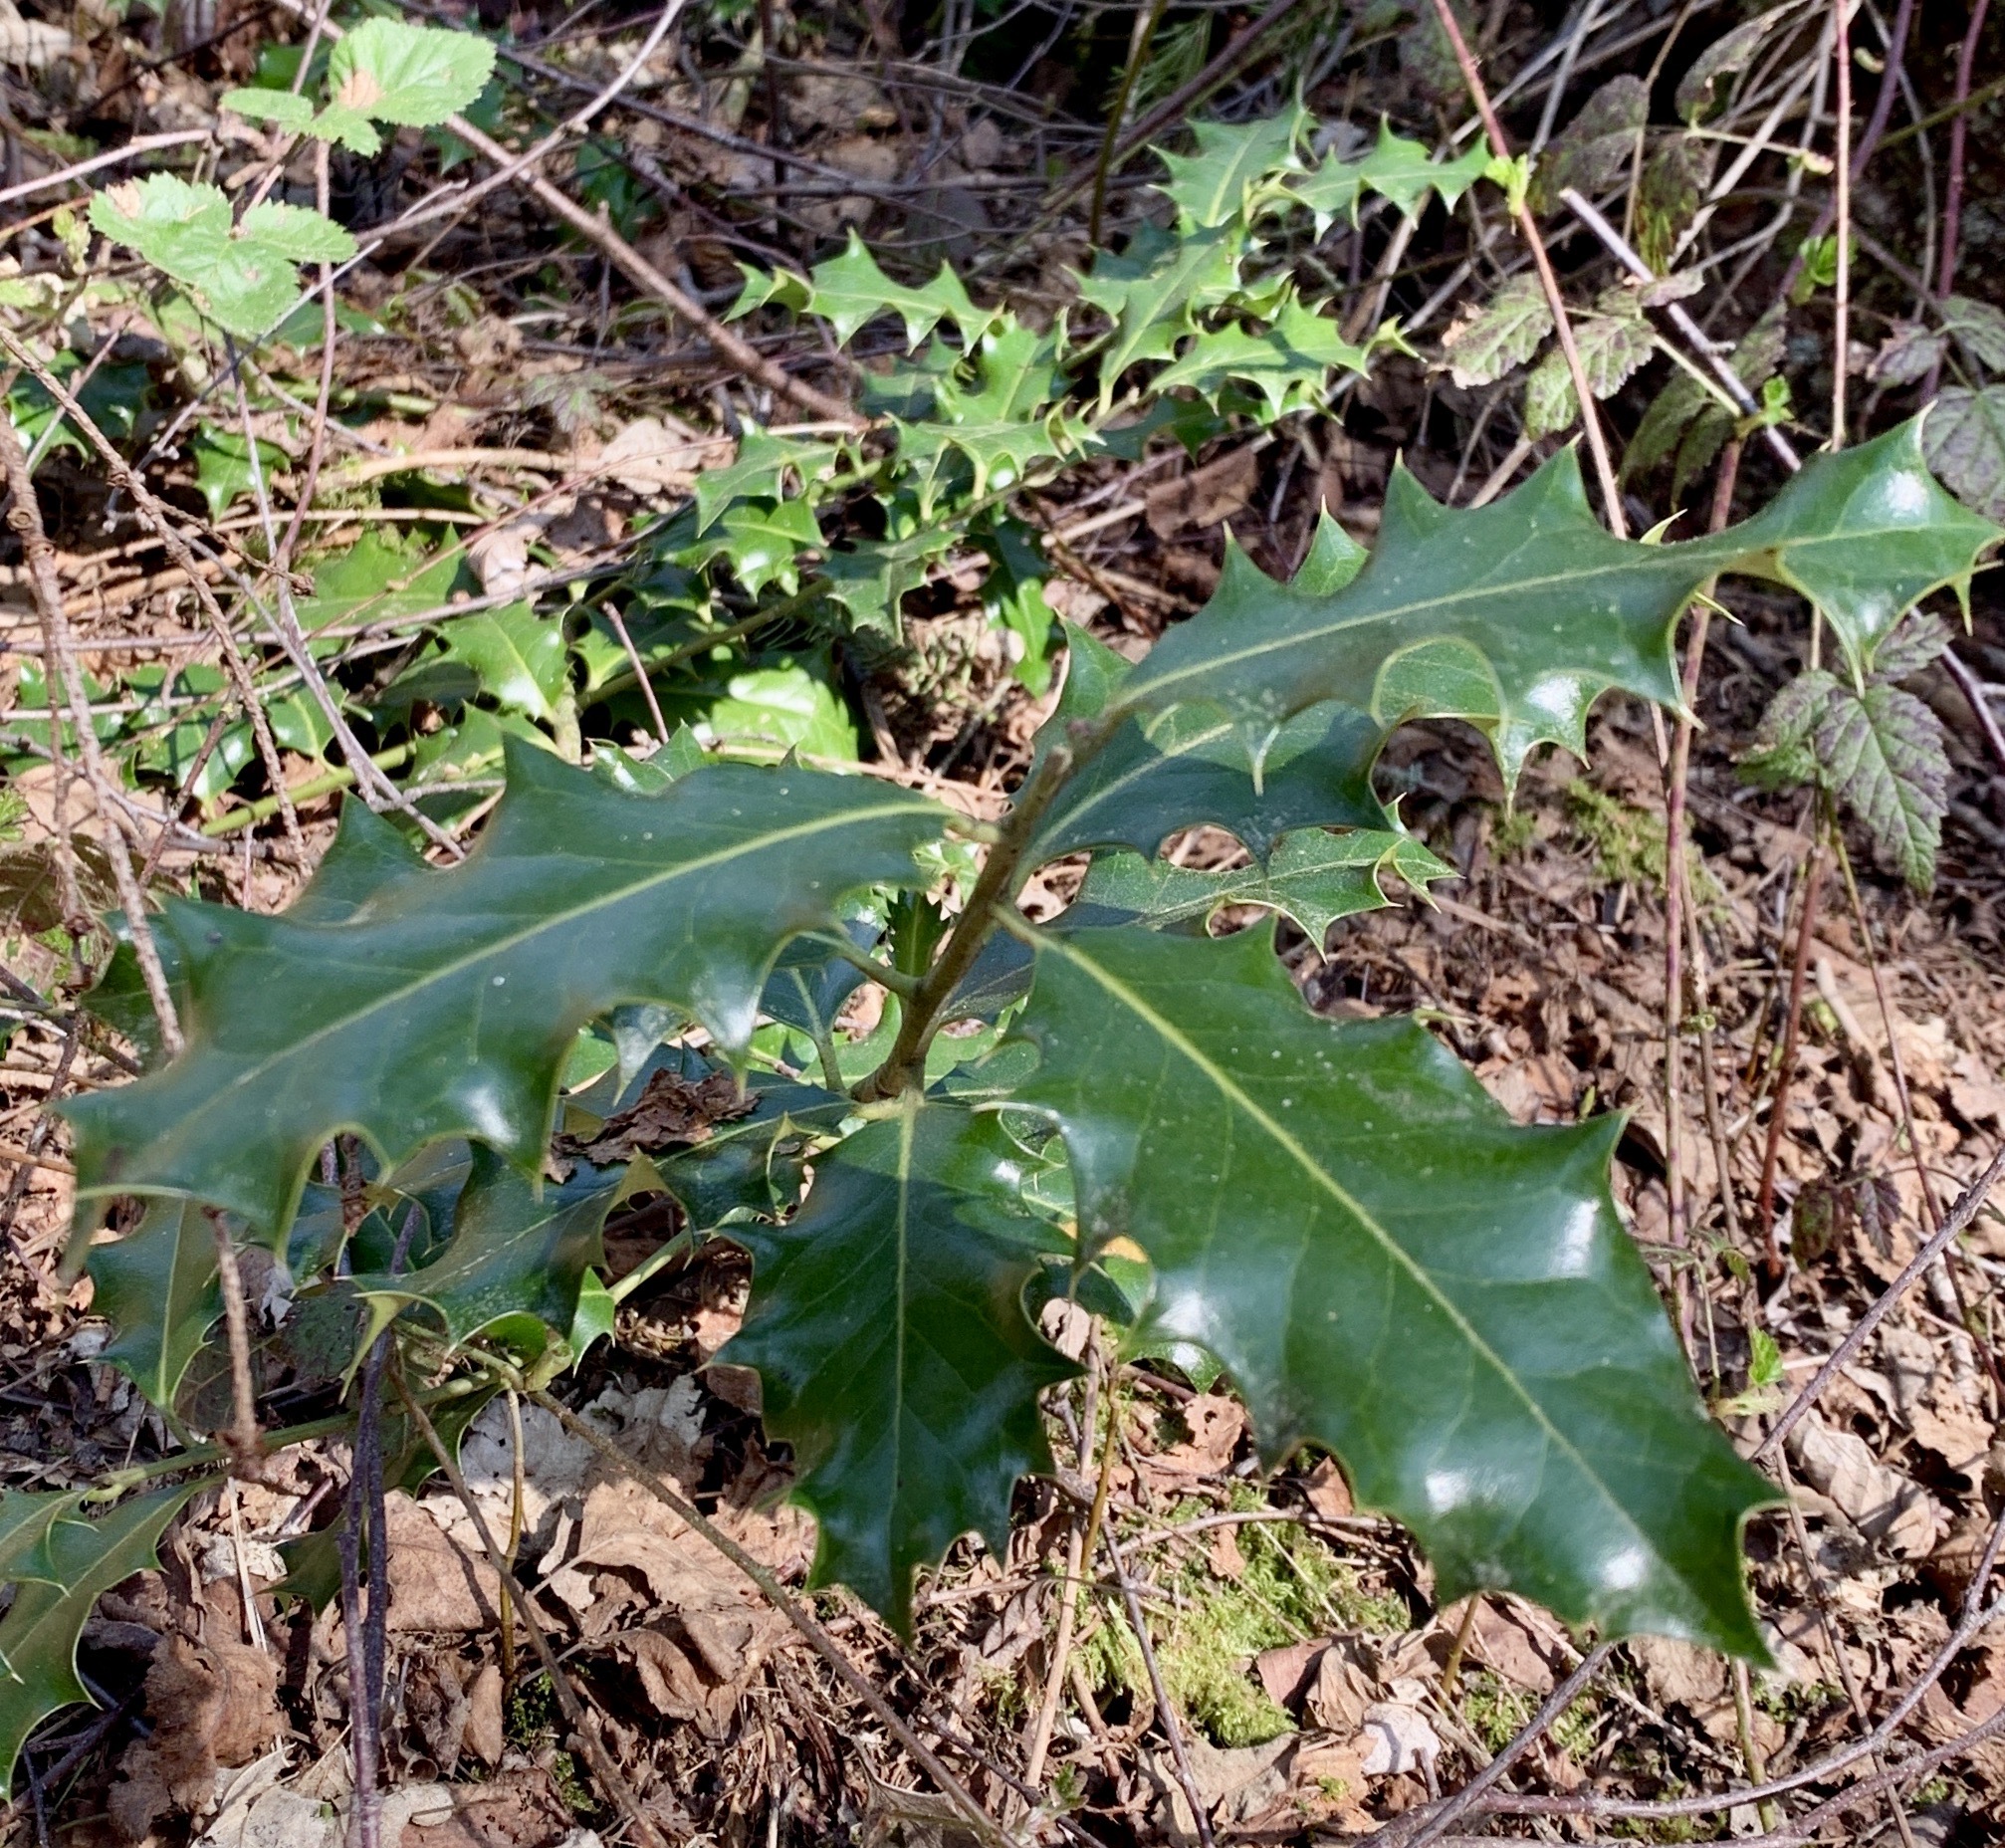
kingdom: Plantae
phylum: Tracheophyta
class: Magnoliopsida
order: Aquifoliales
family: Aquifoliaceae
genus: Ilex
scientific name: Ilex aquifolium
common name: English holly
